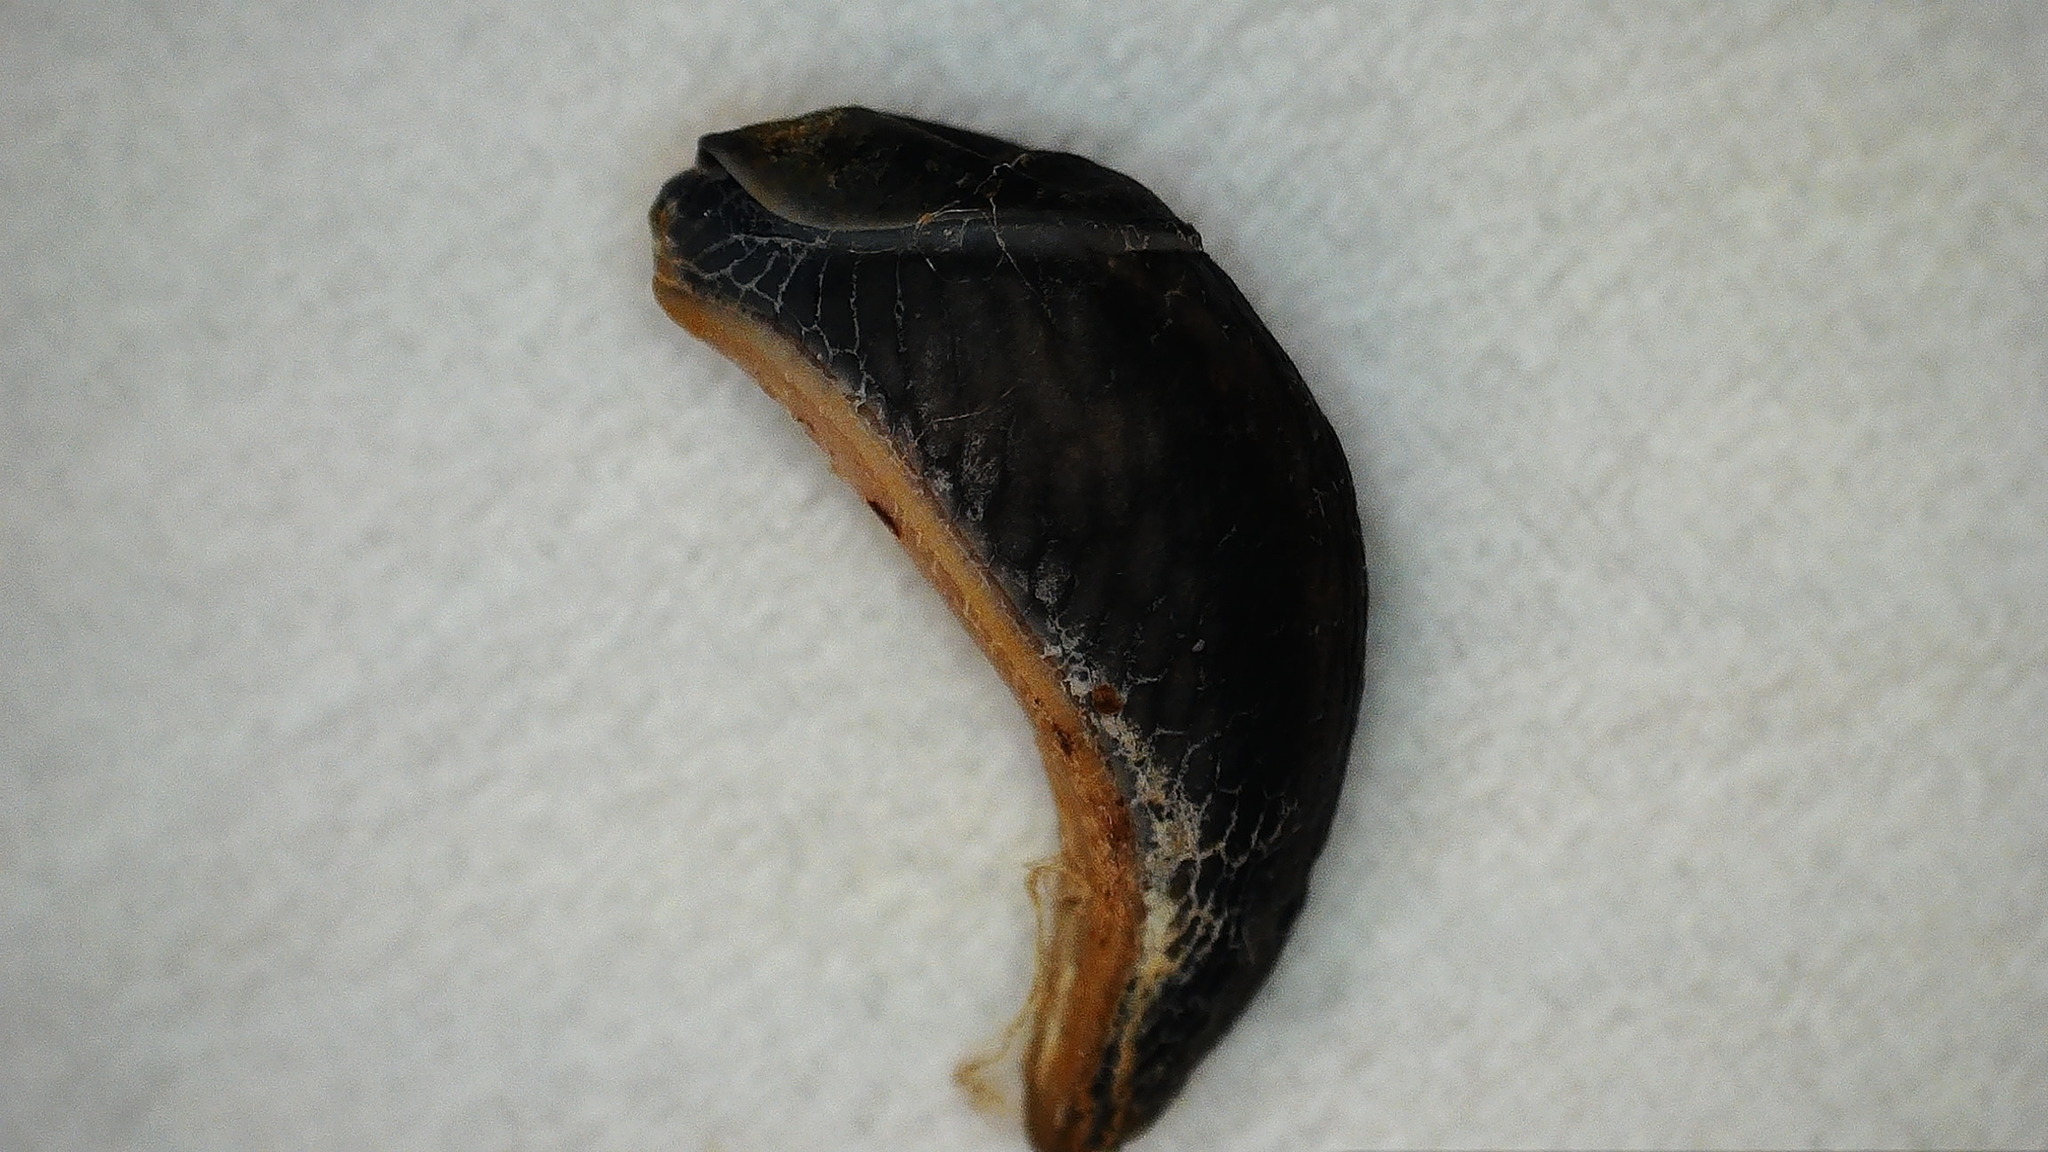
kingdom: Animalia
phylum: Mollusca
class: Gastropoda
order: Stylommatophora
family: Arionidae
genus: Kobeltia
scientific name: Kobeltia
